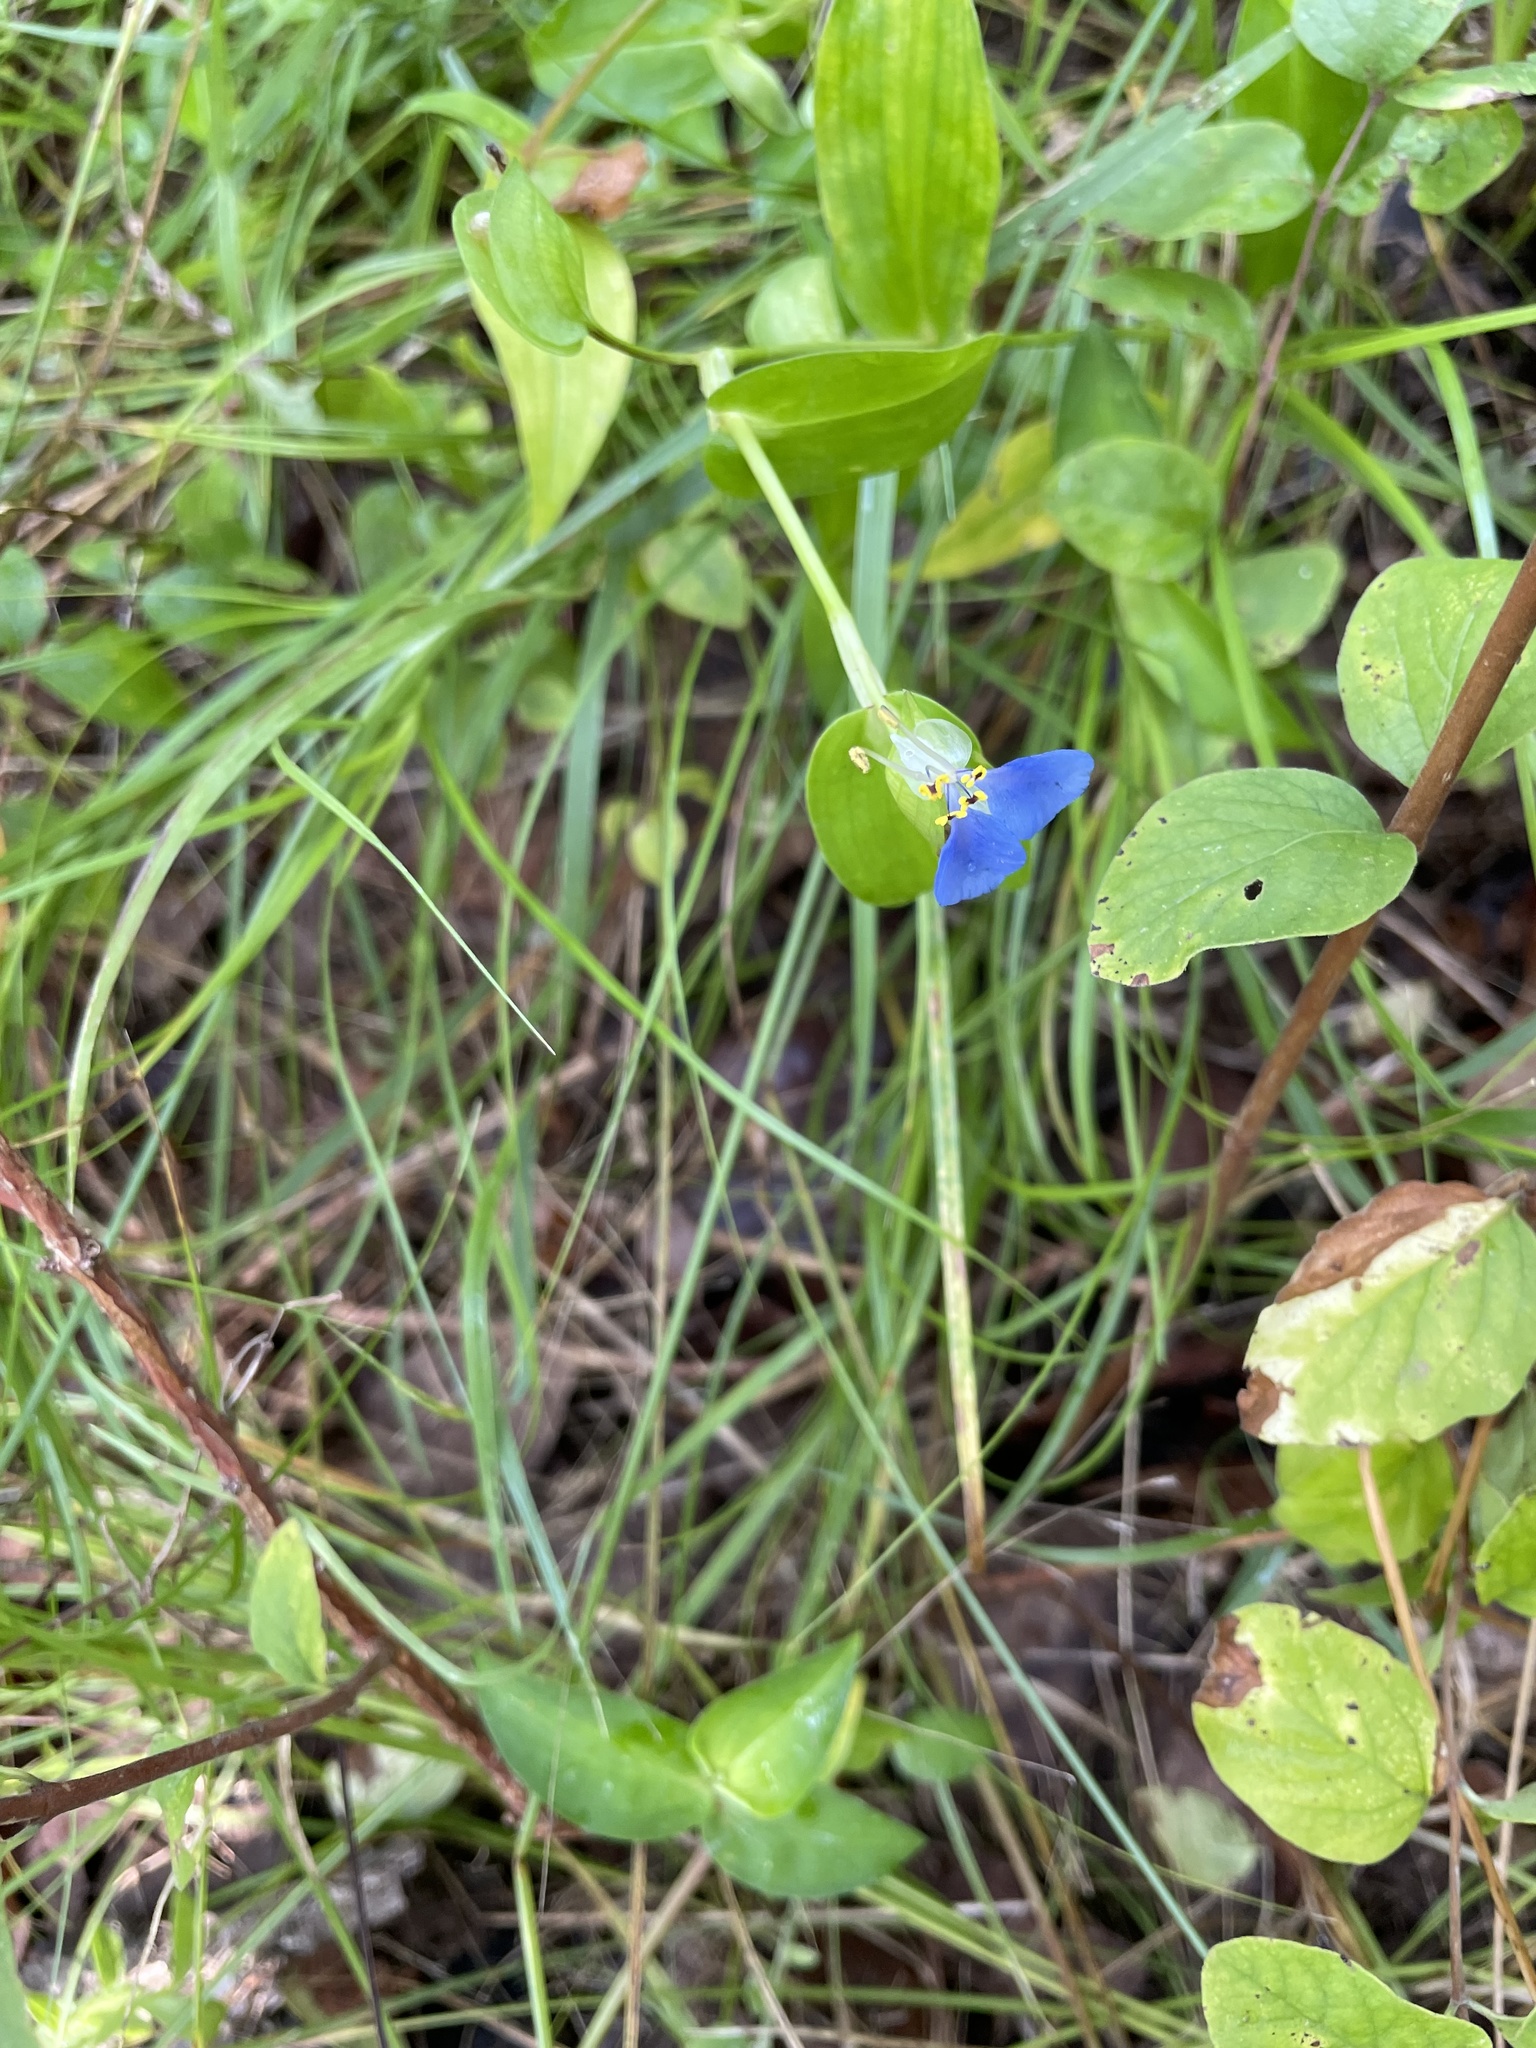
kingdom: Plantae
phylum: Tracheophyta
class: Liliopsida
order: Commelinales
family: Commelinaceae
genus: Commelina
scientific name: Commelina communis
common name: Asiatic dayflower
